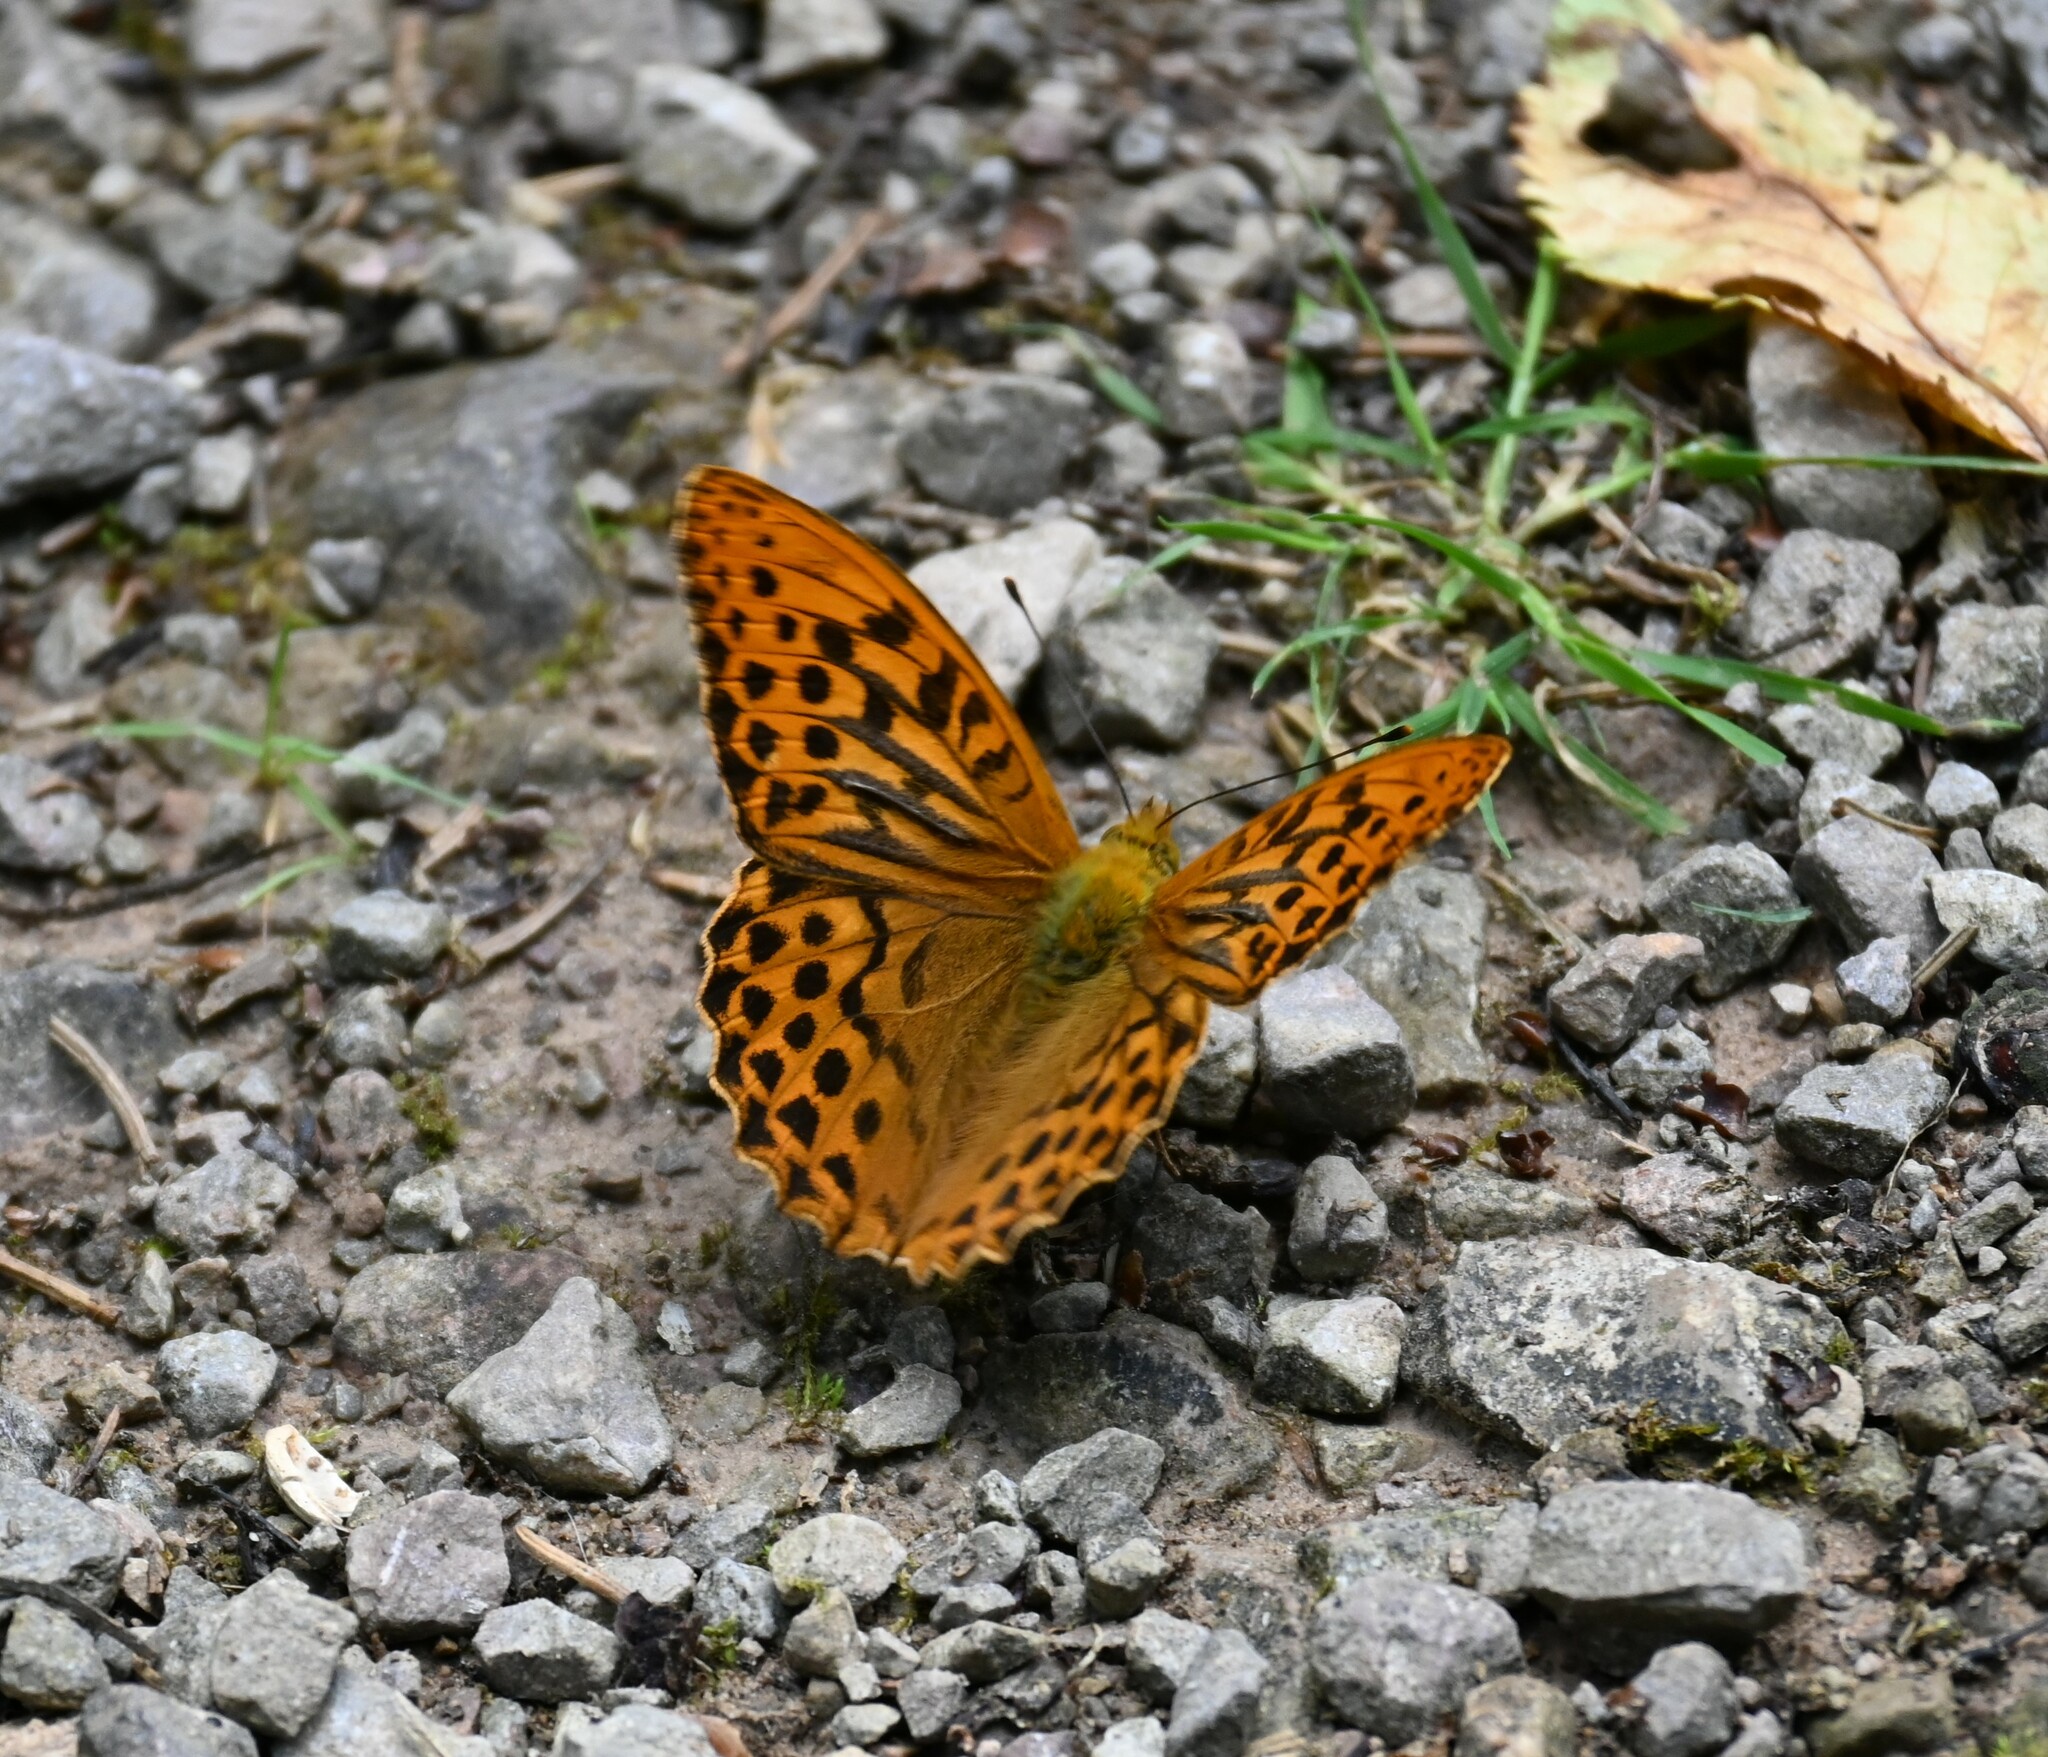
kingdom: Animalia
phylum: Arthropoda
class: Insecta
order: Lepidoptera
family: Nymphalidae
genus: Argynnis
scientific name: Argynnis paphia
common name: Silver-washed fritillary
